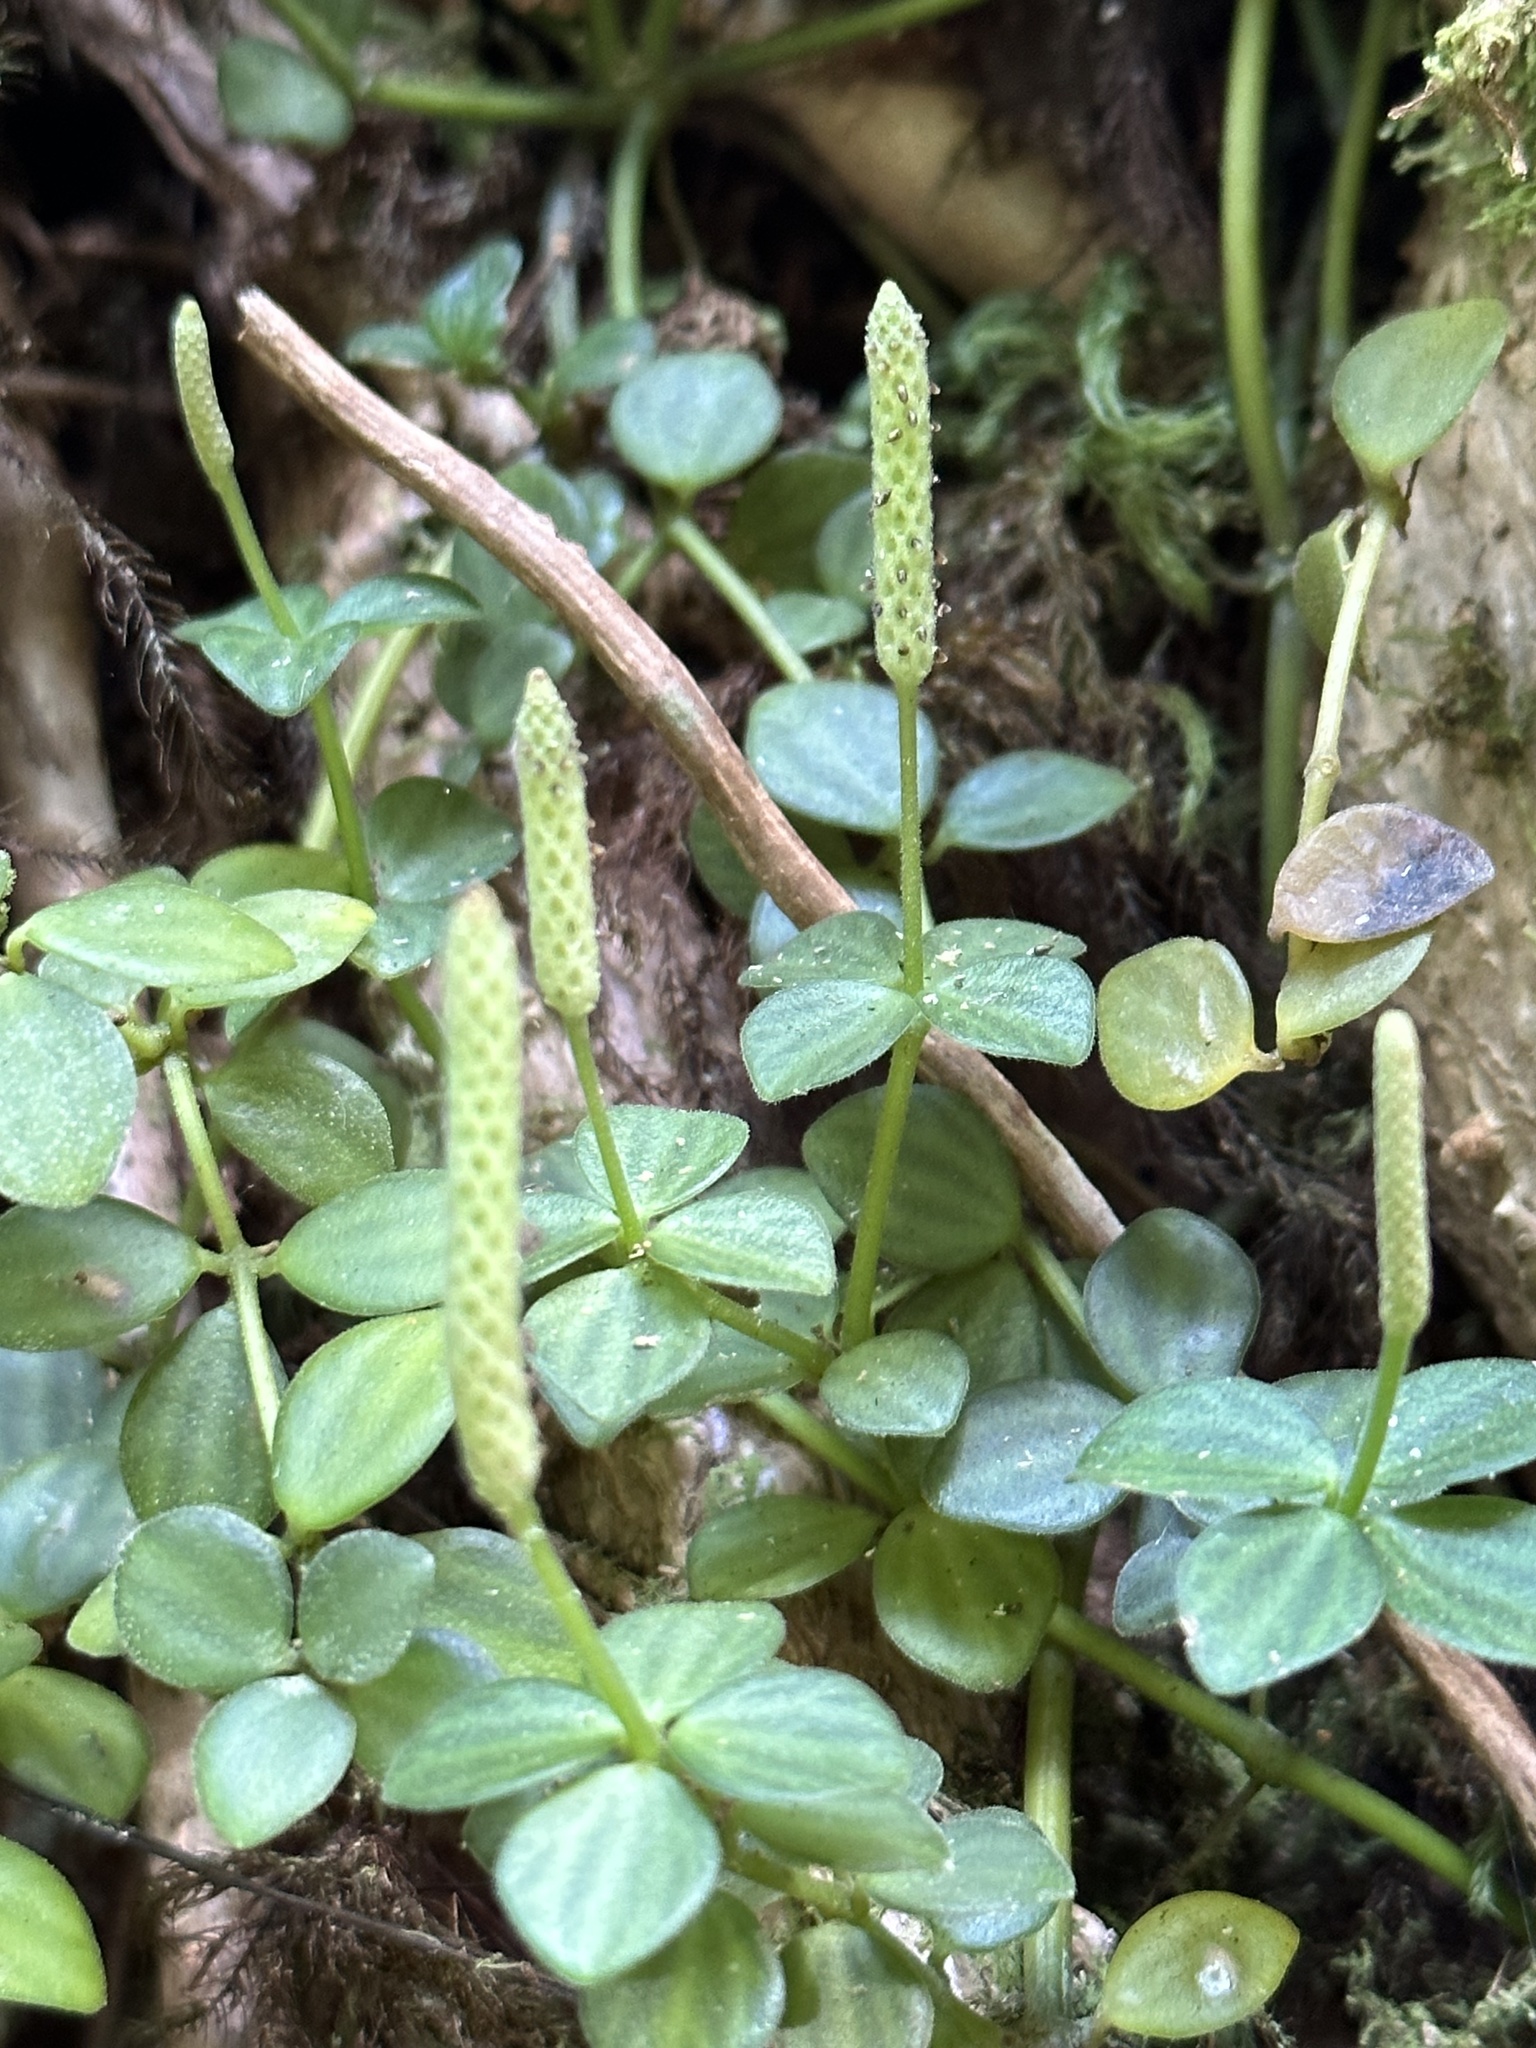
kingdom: Plantae
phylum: Tracheophyta
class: Magnoliopsida
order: Piperales
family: Piperaceae
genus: Peperomia
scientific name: Peperomia tetraphylla
